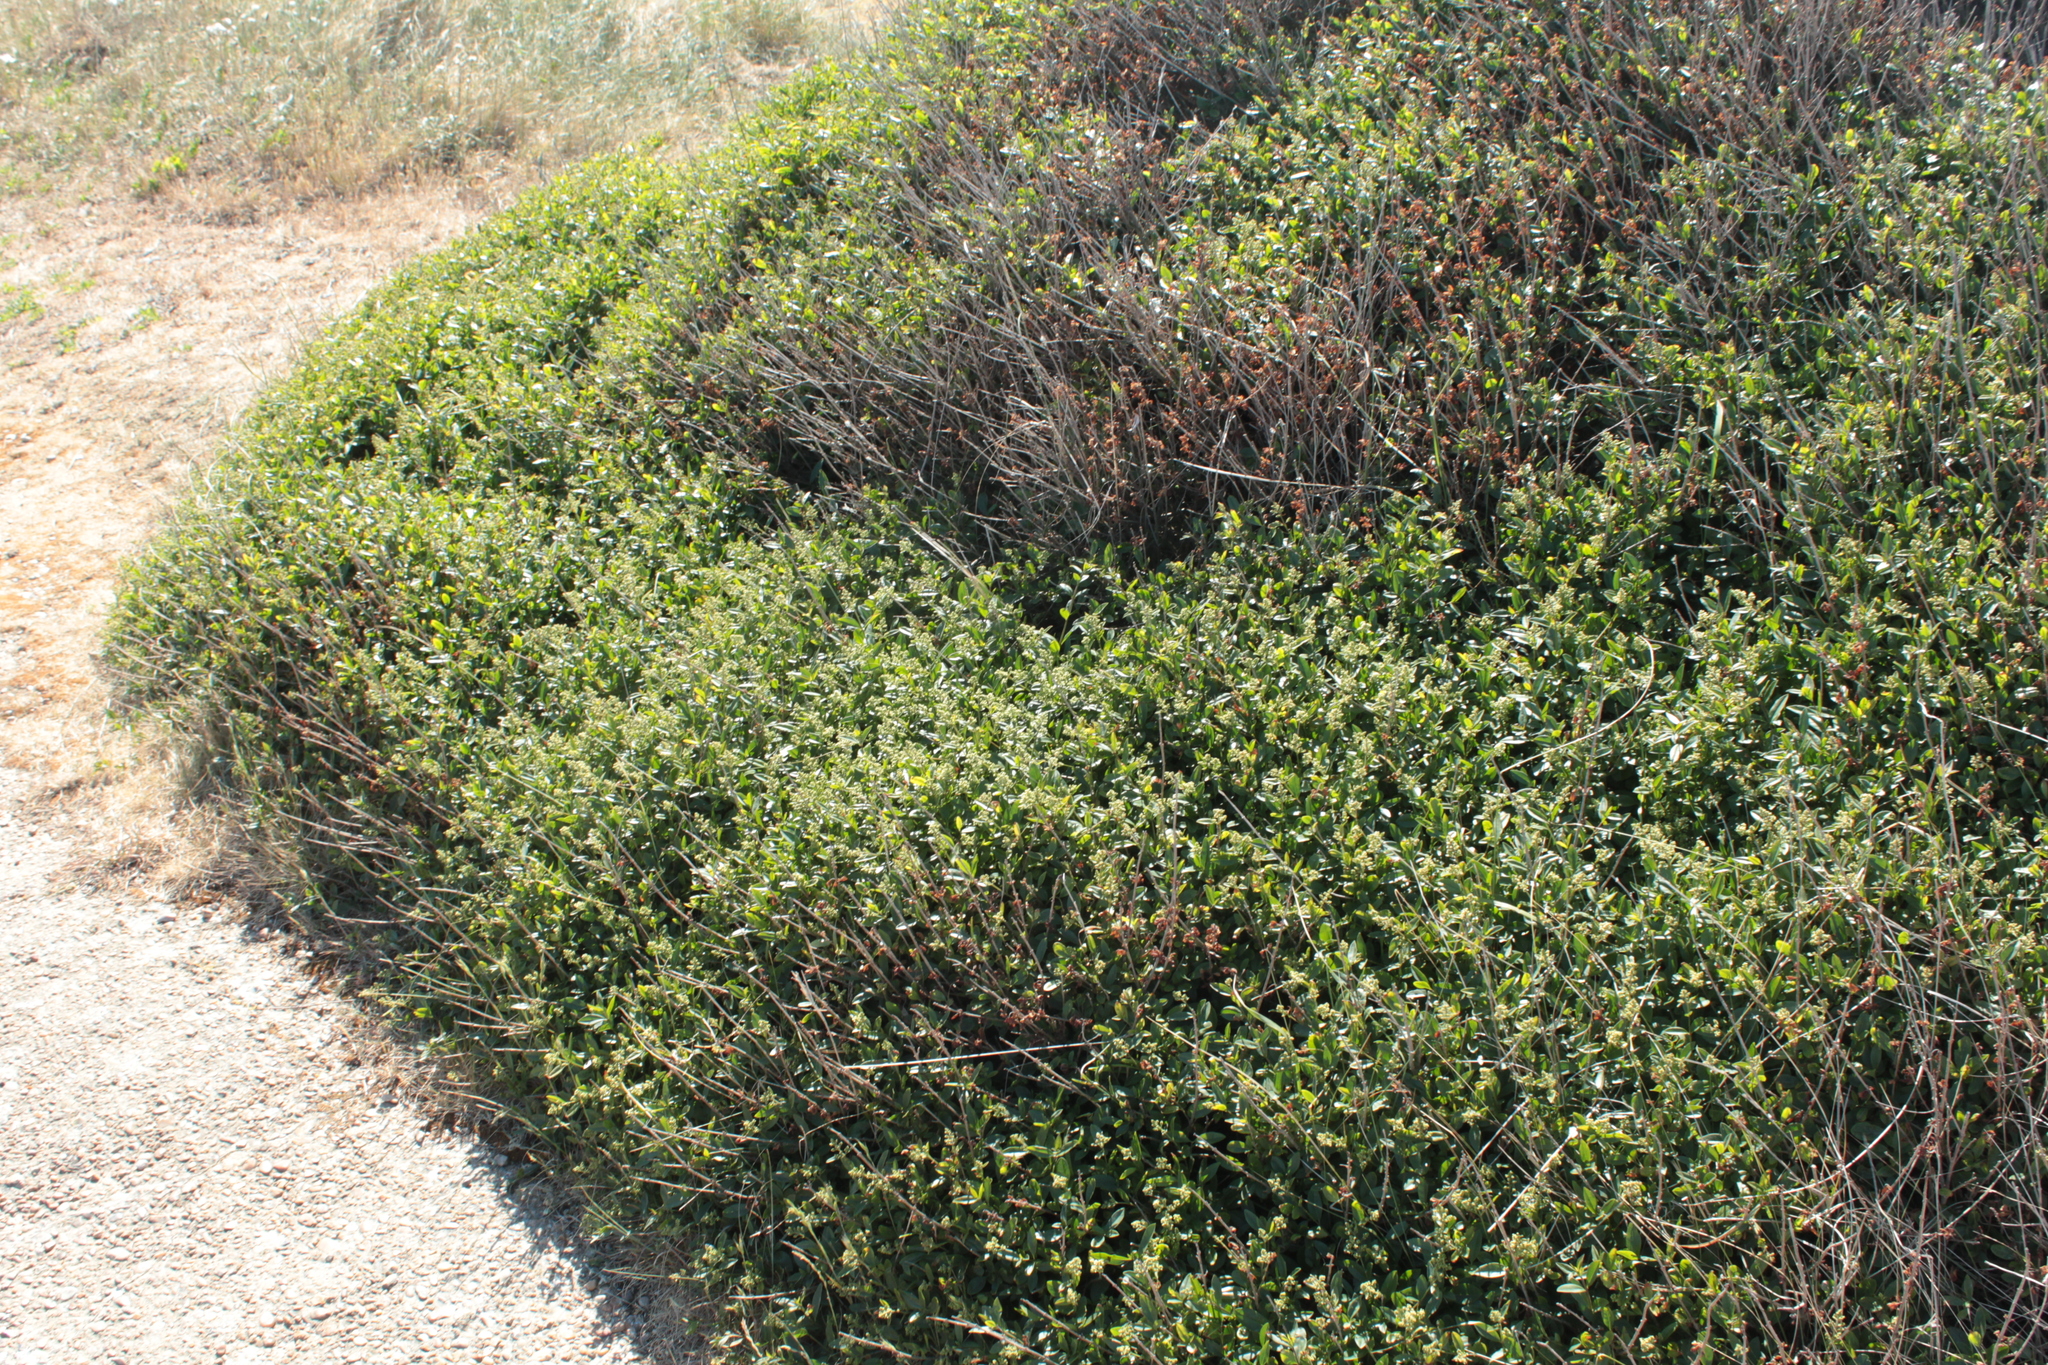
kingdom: Plantae
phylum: Tracheophyta
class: Magnoliopsida
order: Lamiales
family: Oleaceae
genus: Ligustrum
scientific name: Ligustrum vulgare
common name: Wild privet
